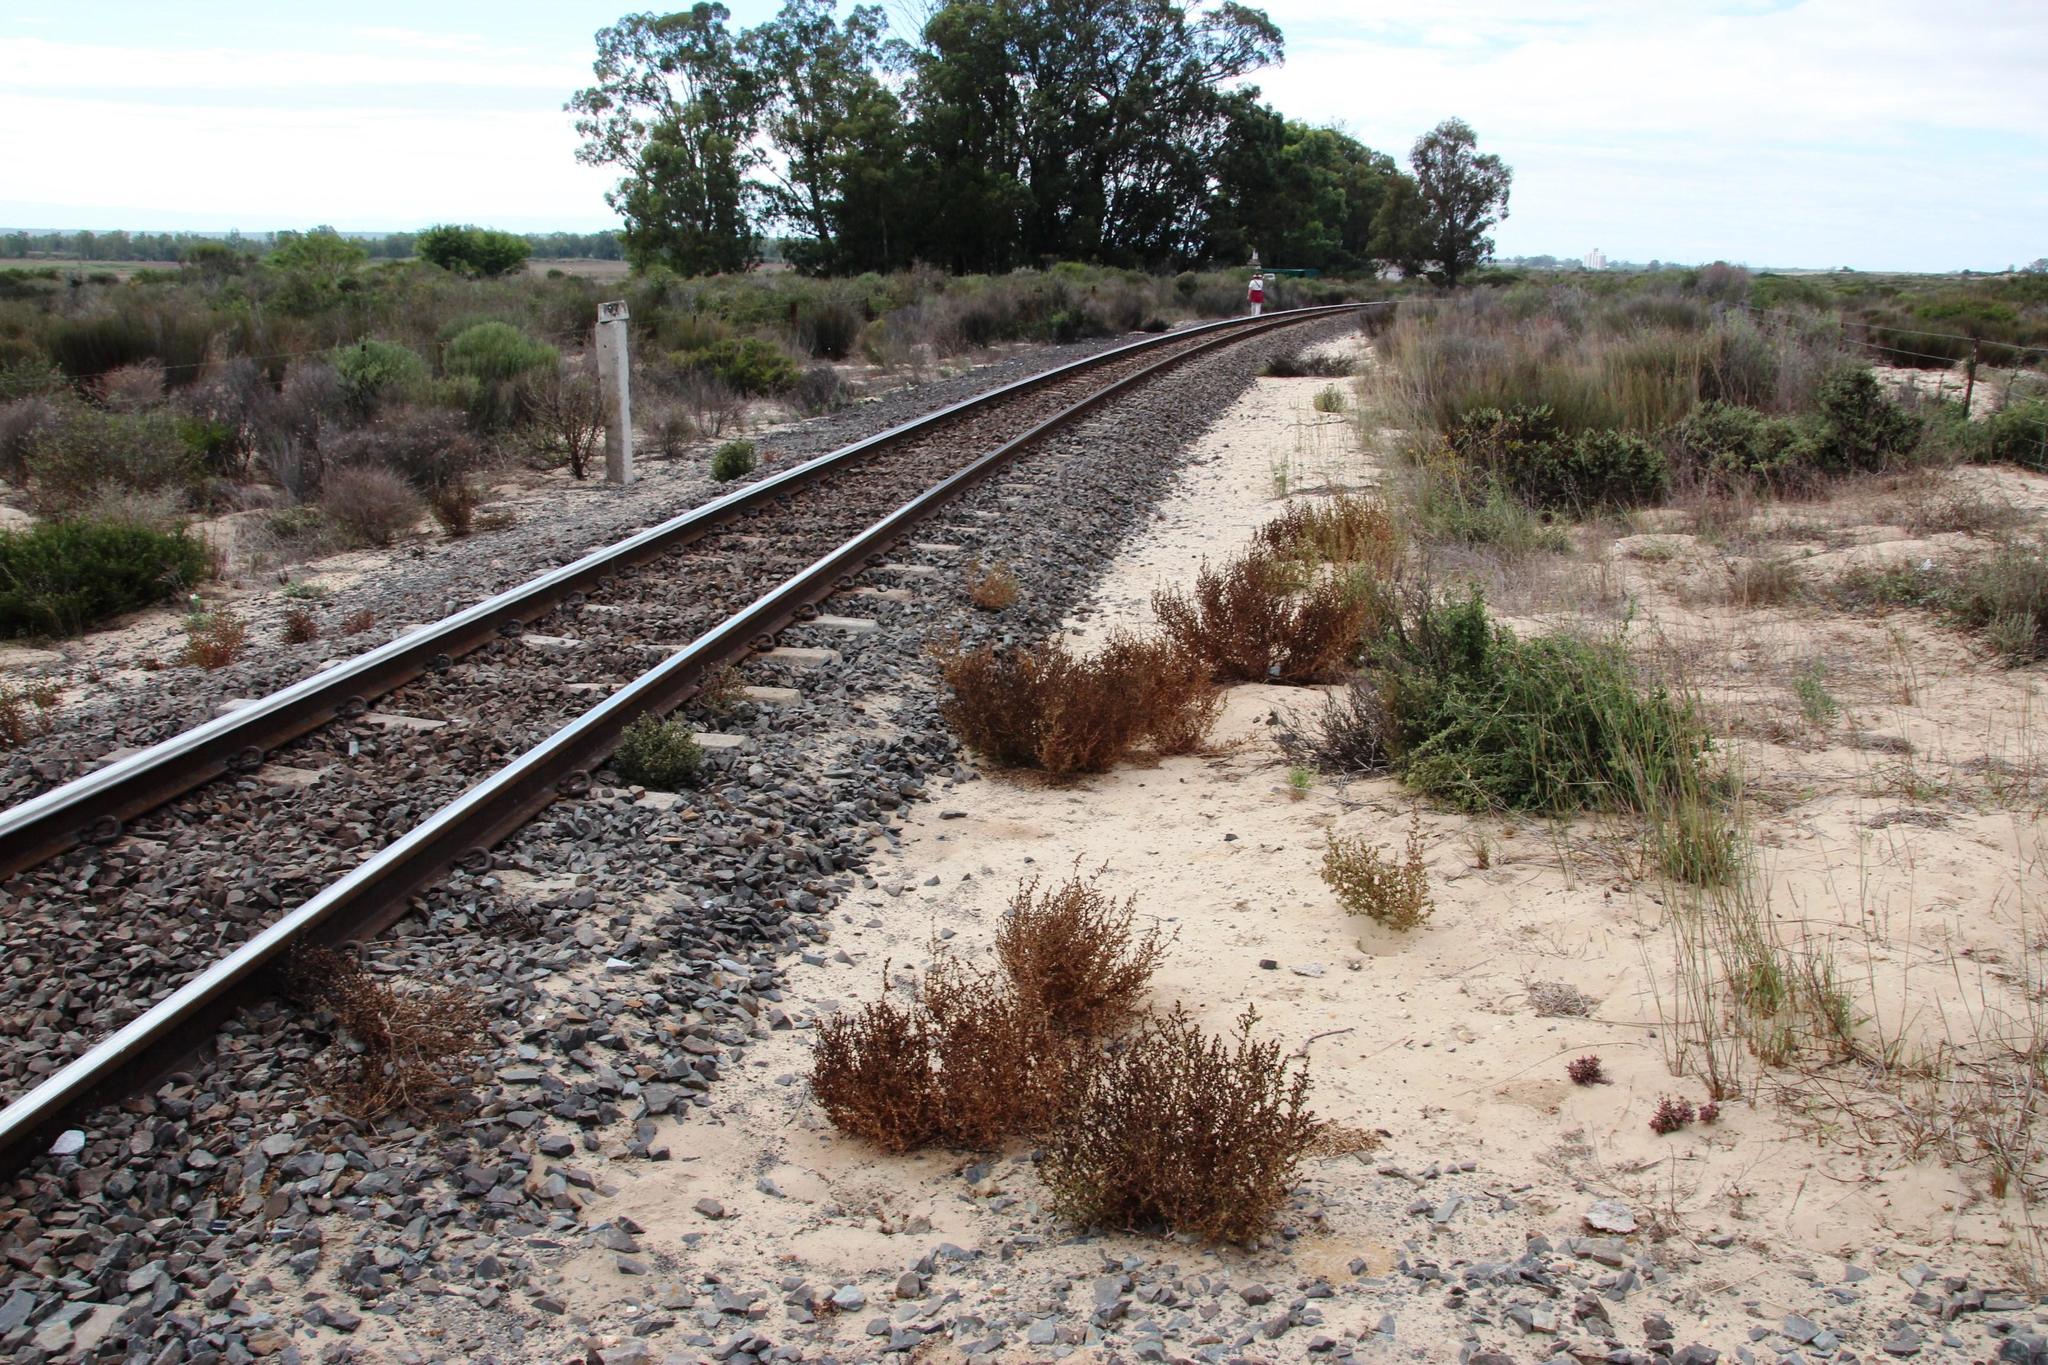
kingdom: Plantae
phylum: Tracheophyta
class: Magnoliopsida
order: Caryophyllales
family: Amaranthaceae
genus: Salsola
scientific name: Salsola kali
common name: Saltwort
